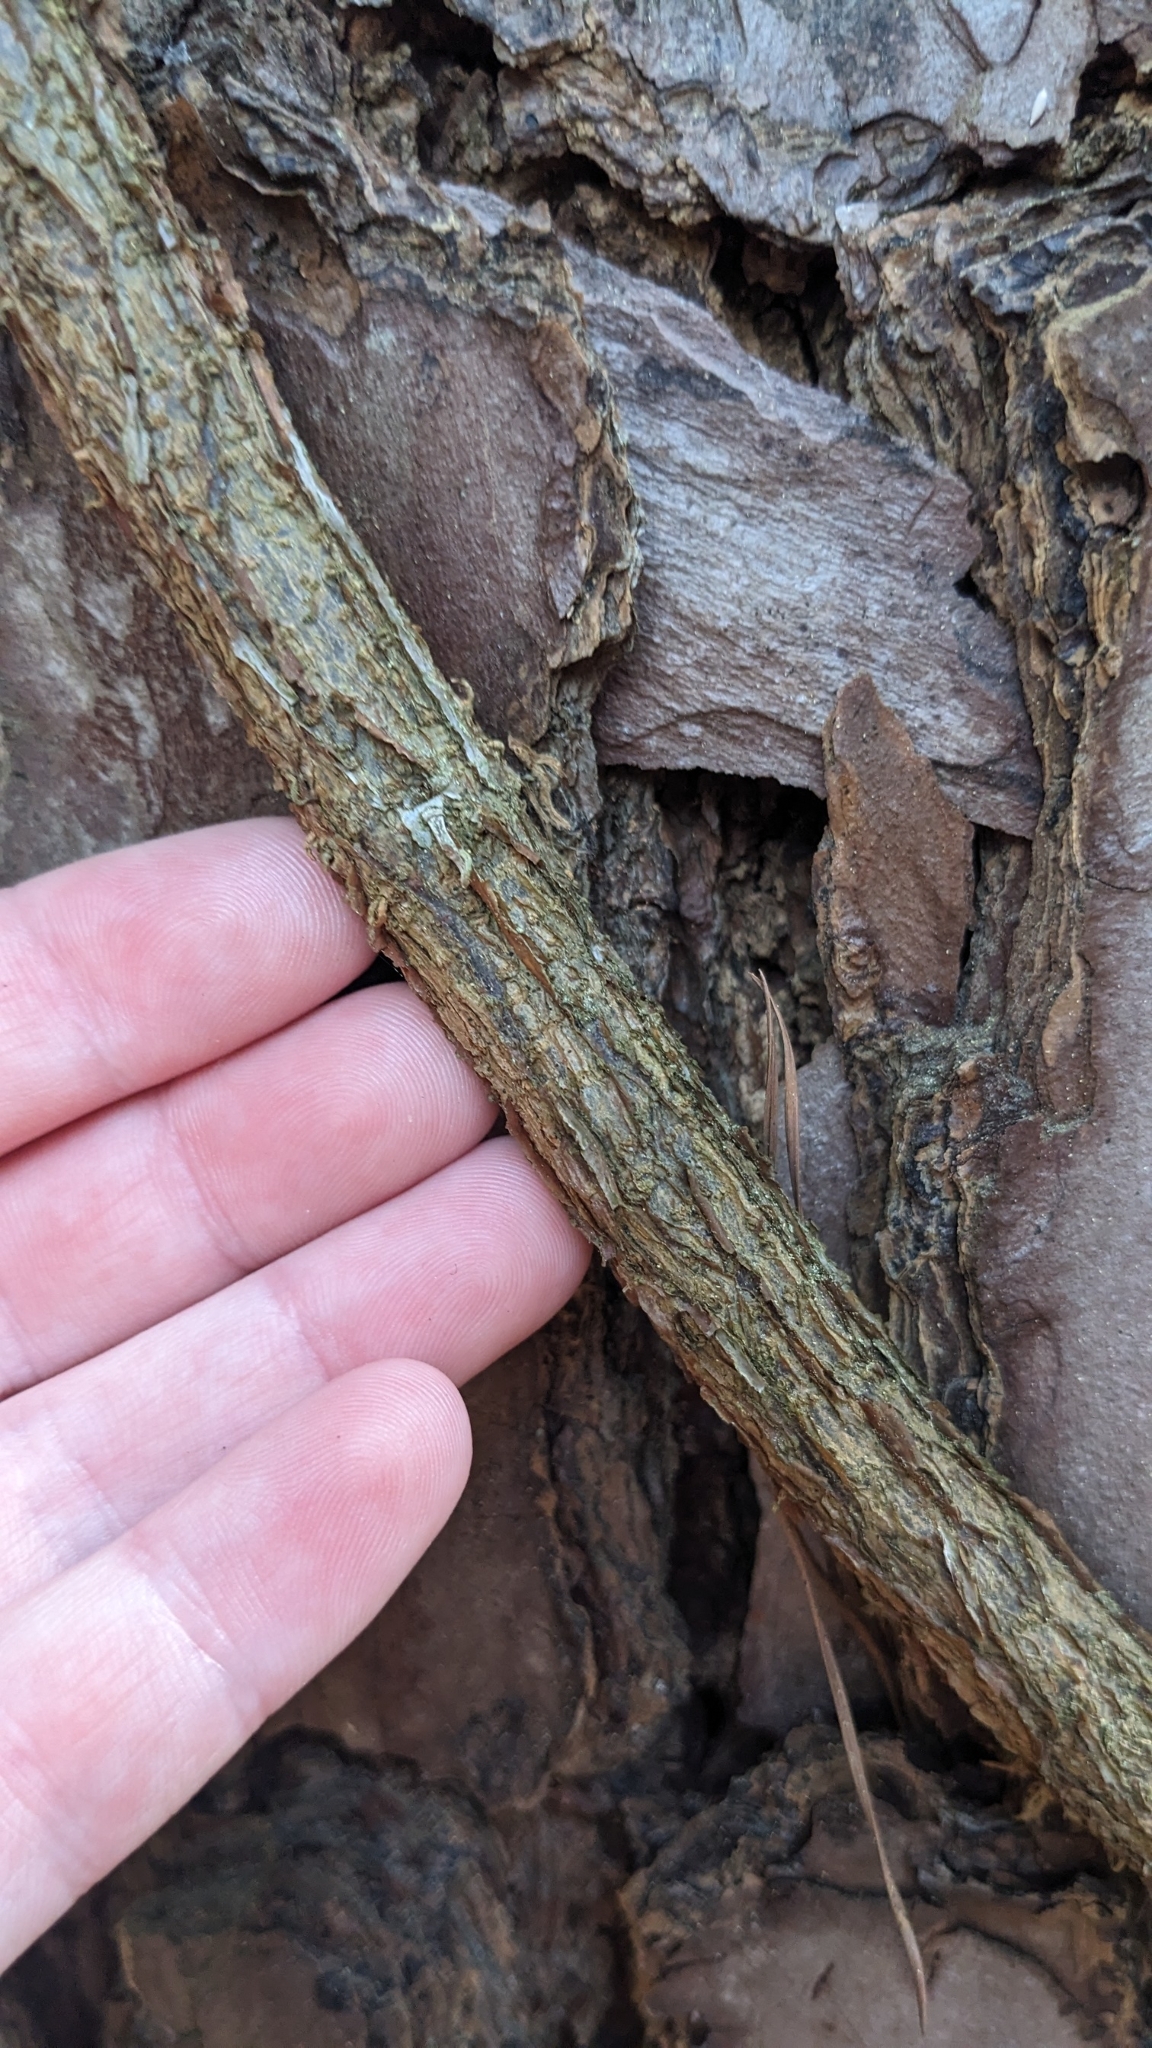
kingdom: Plantae
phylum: Tracheophyta
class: Magnoliopsida
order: Lamiales
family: Bignoniaceae
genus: Bignonia
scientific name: Bignonia capreolata
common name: Crossvine
